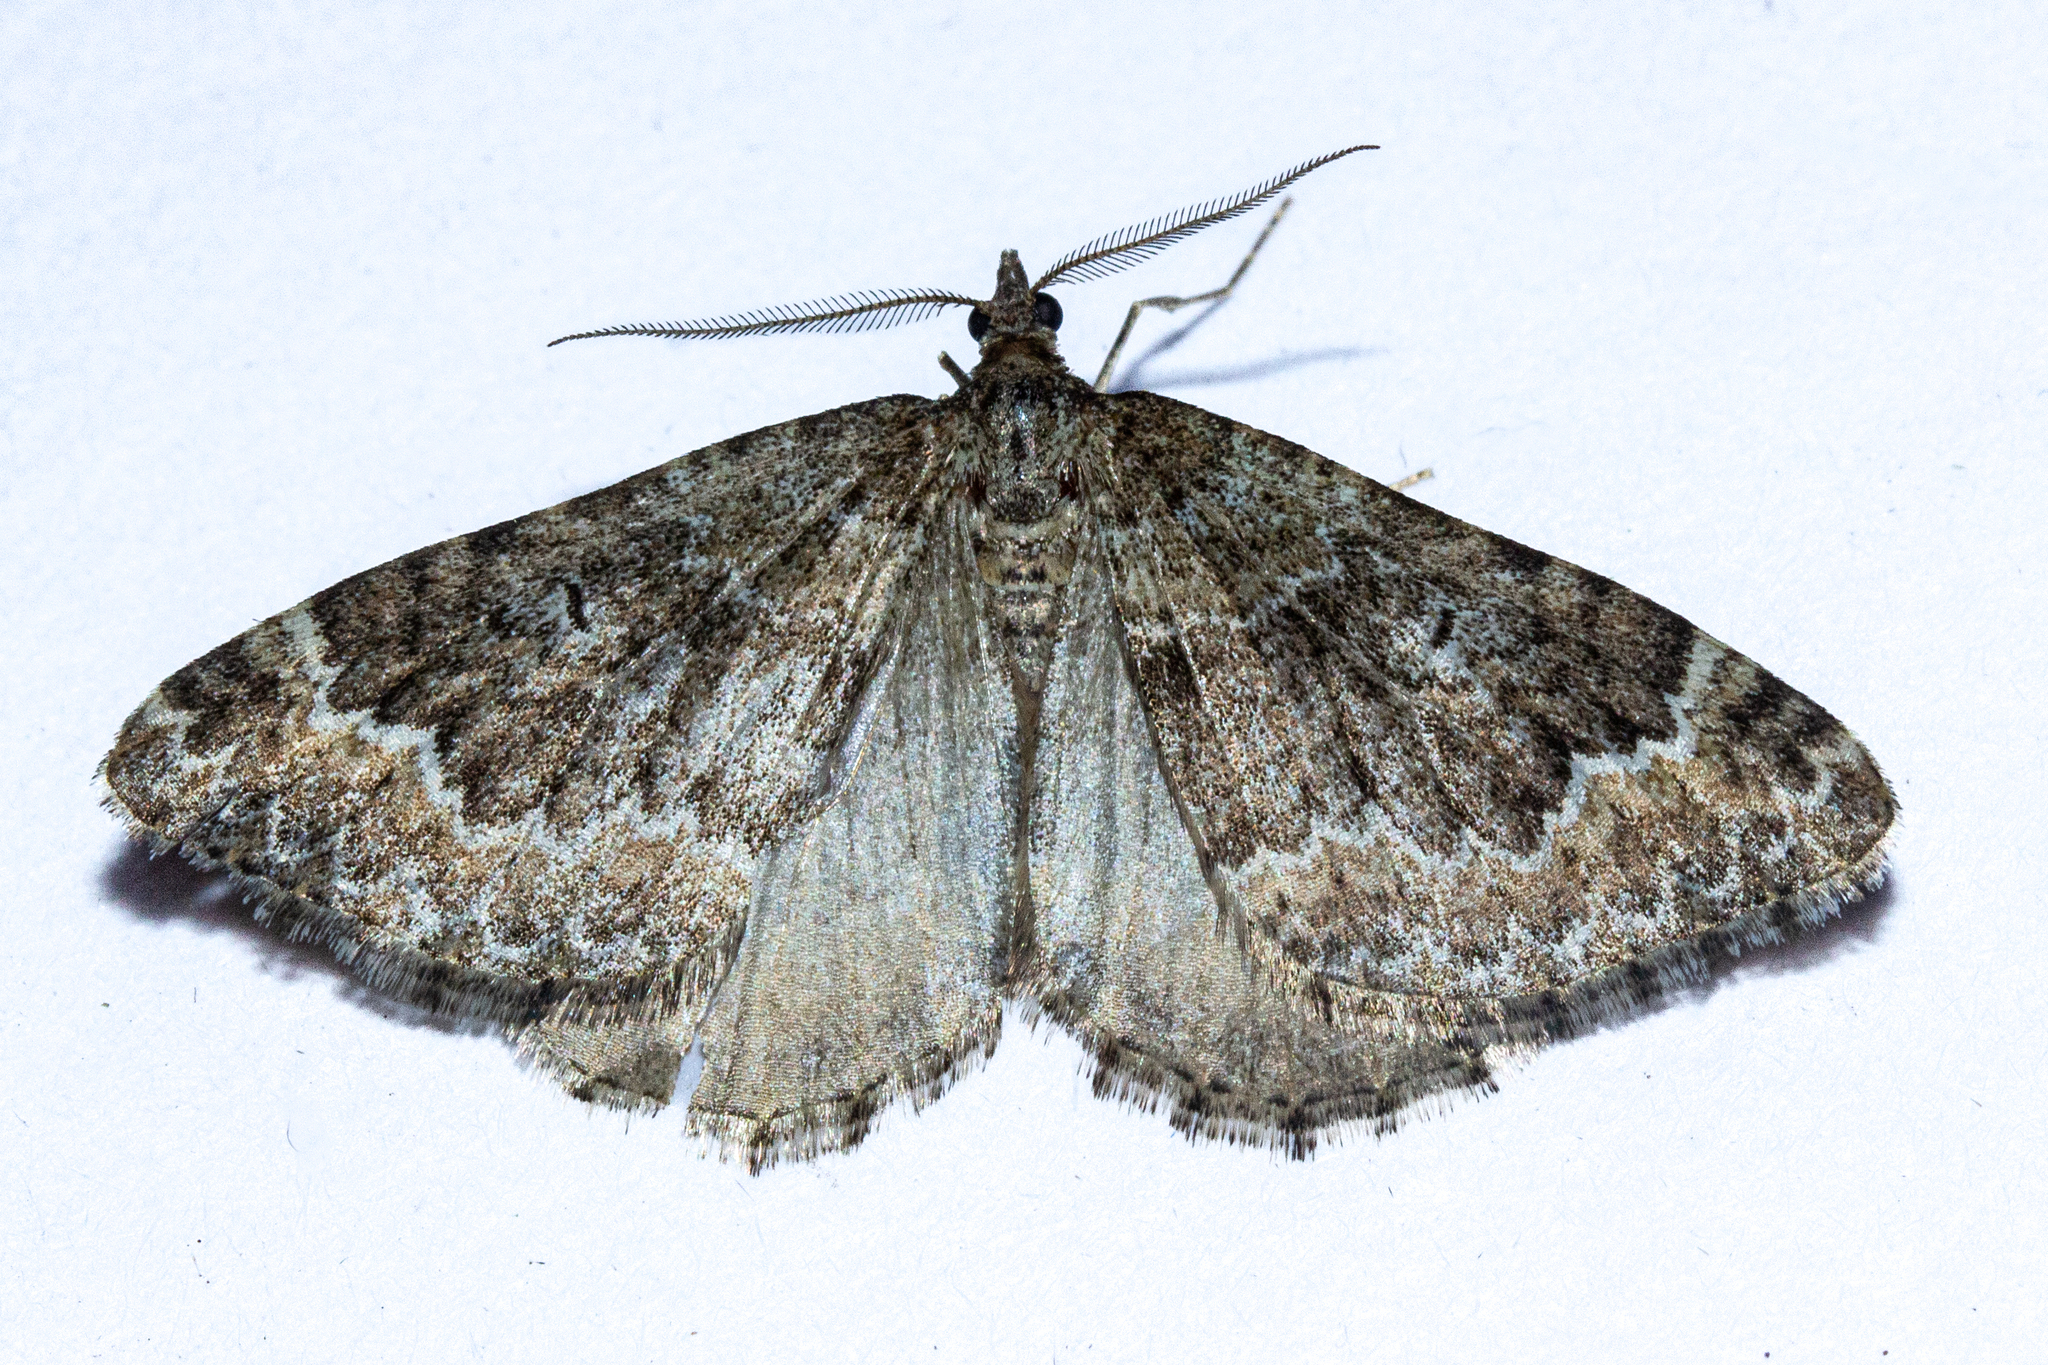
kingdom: Animalia
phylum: Arthropoda
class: Insecta
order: Lepidoptera
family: Geometridae
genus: Asaphodes
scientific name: Asaphodes ida
